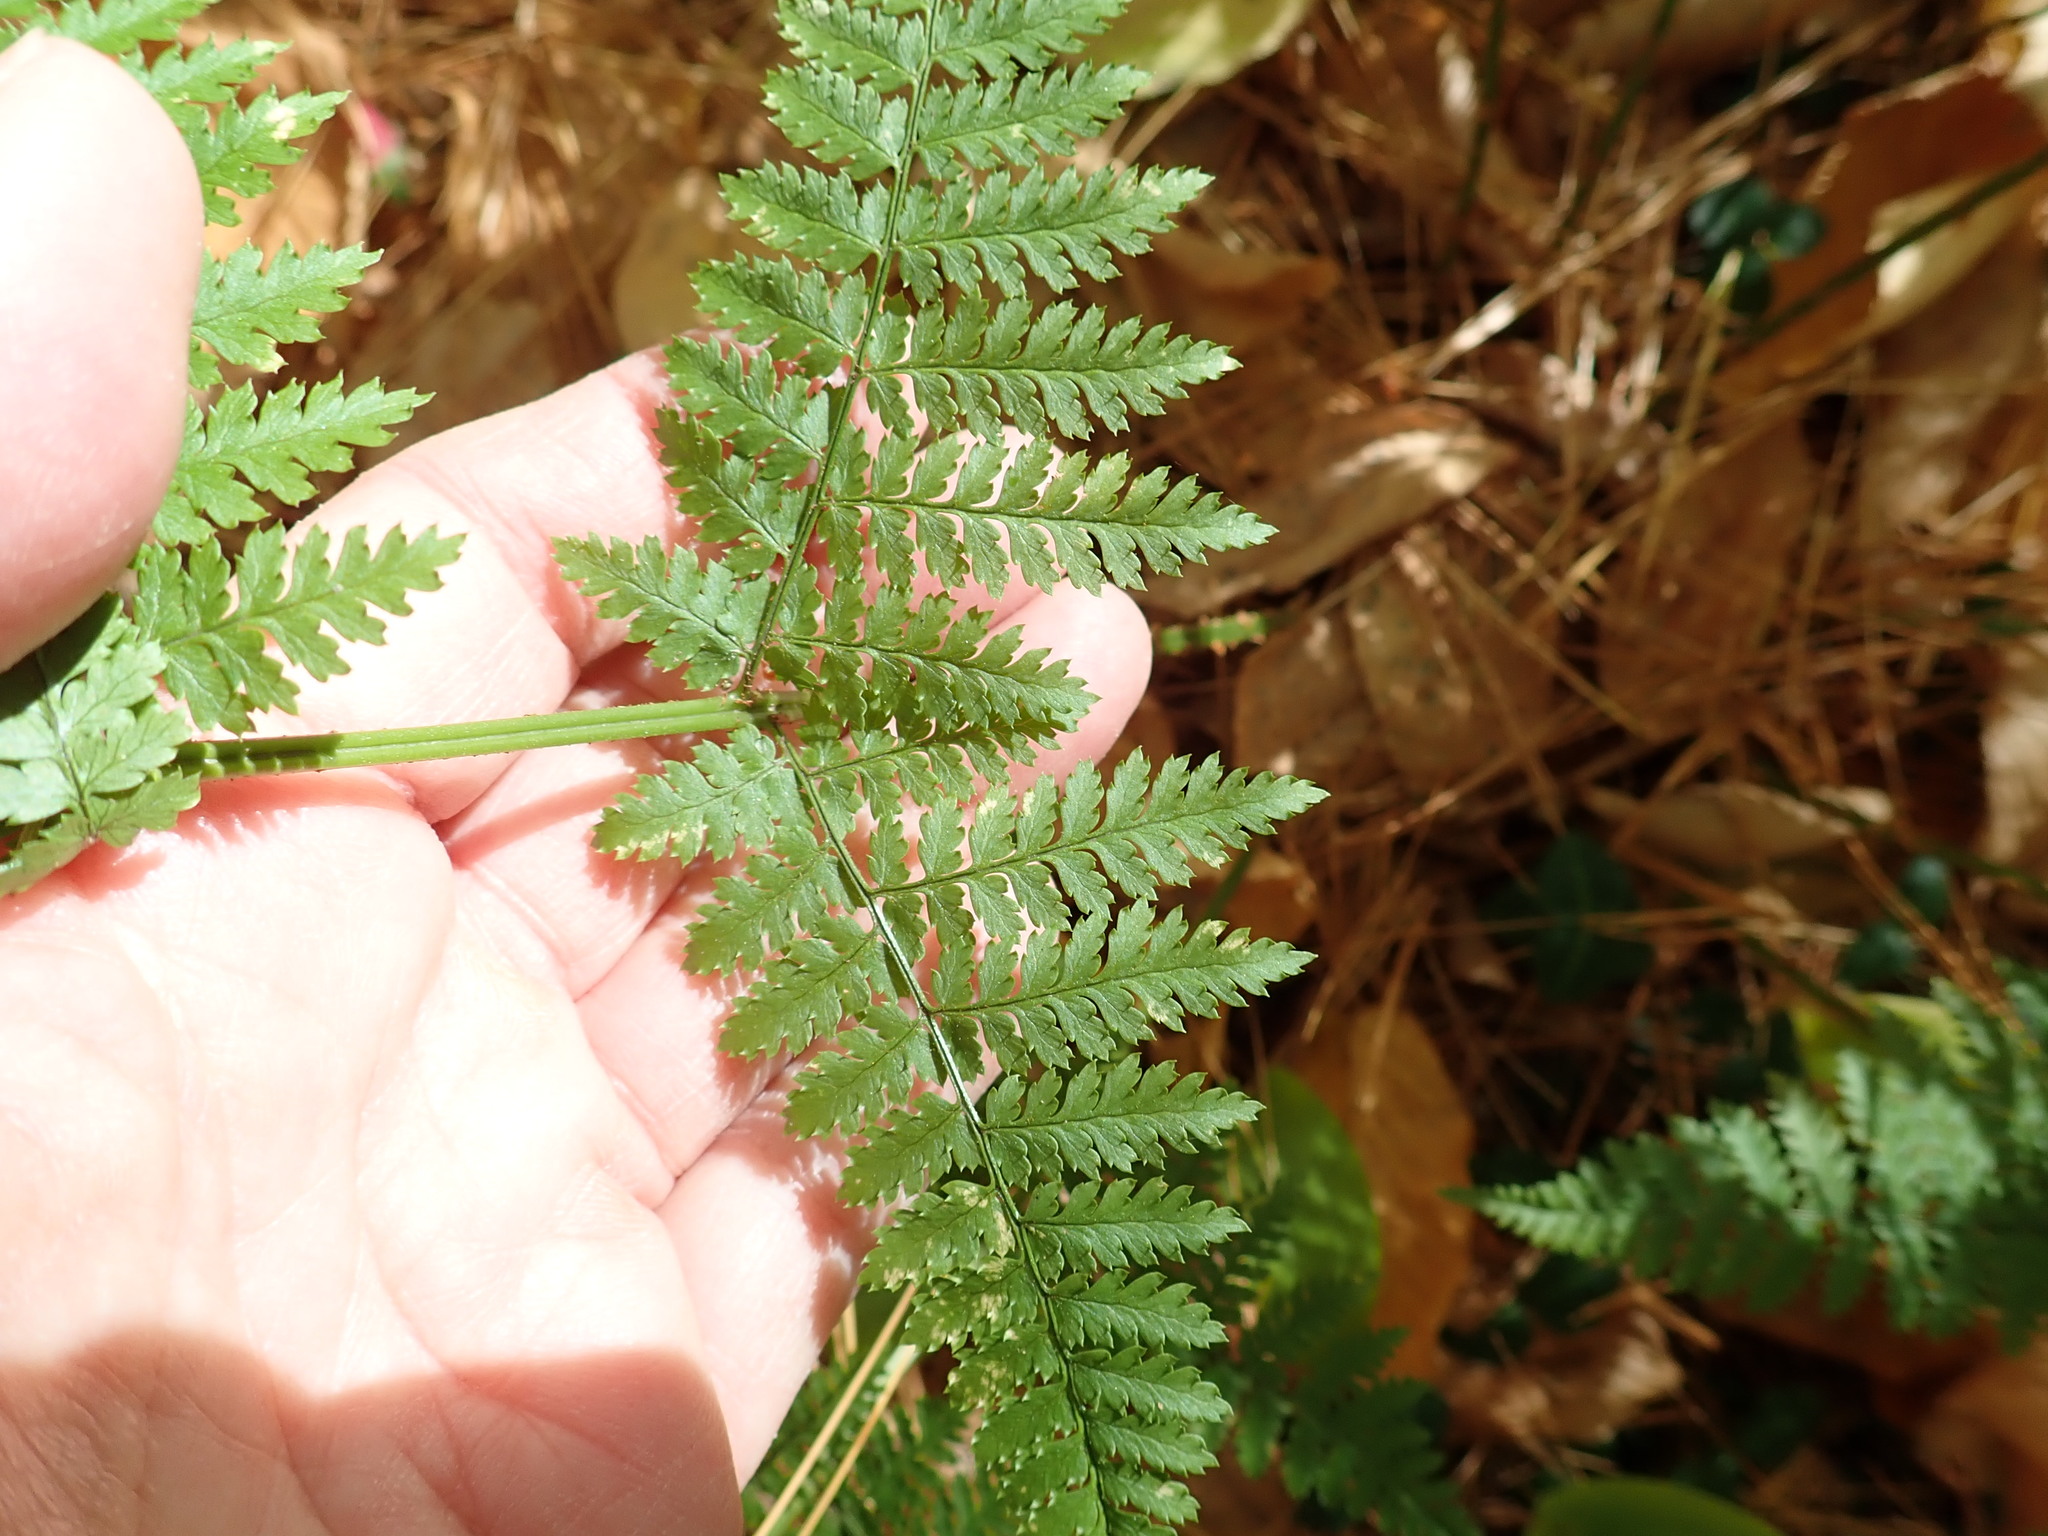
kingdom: Plantae
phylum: Tracheophyta
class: Polypodiopsida
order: Polypodiales
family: Dryopteridaceae
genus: Dryopteris
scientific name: Dryopteris intermedia
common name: Evergreen wood fern
